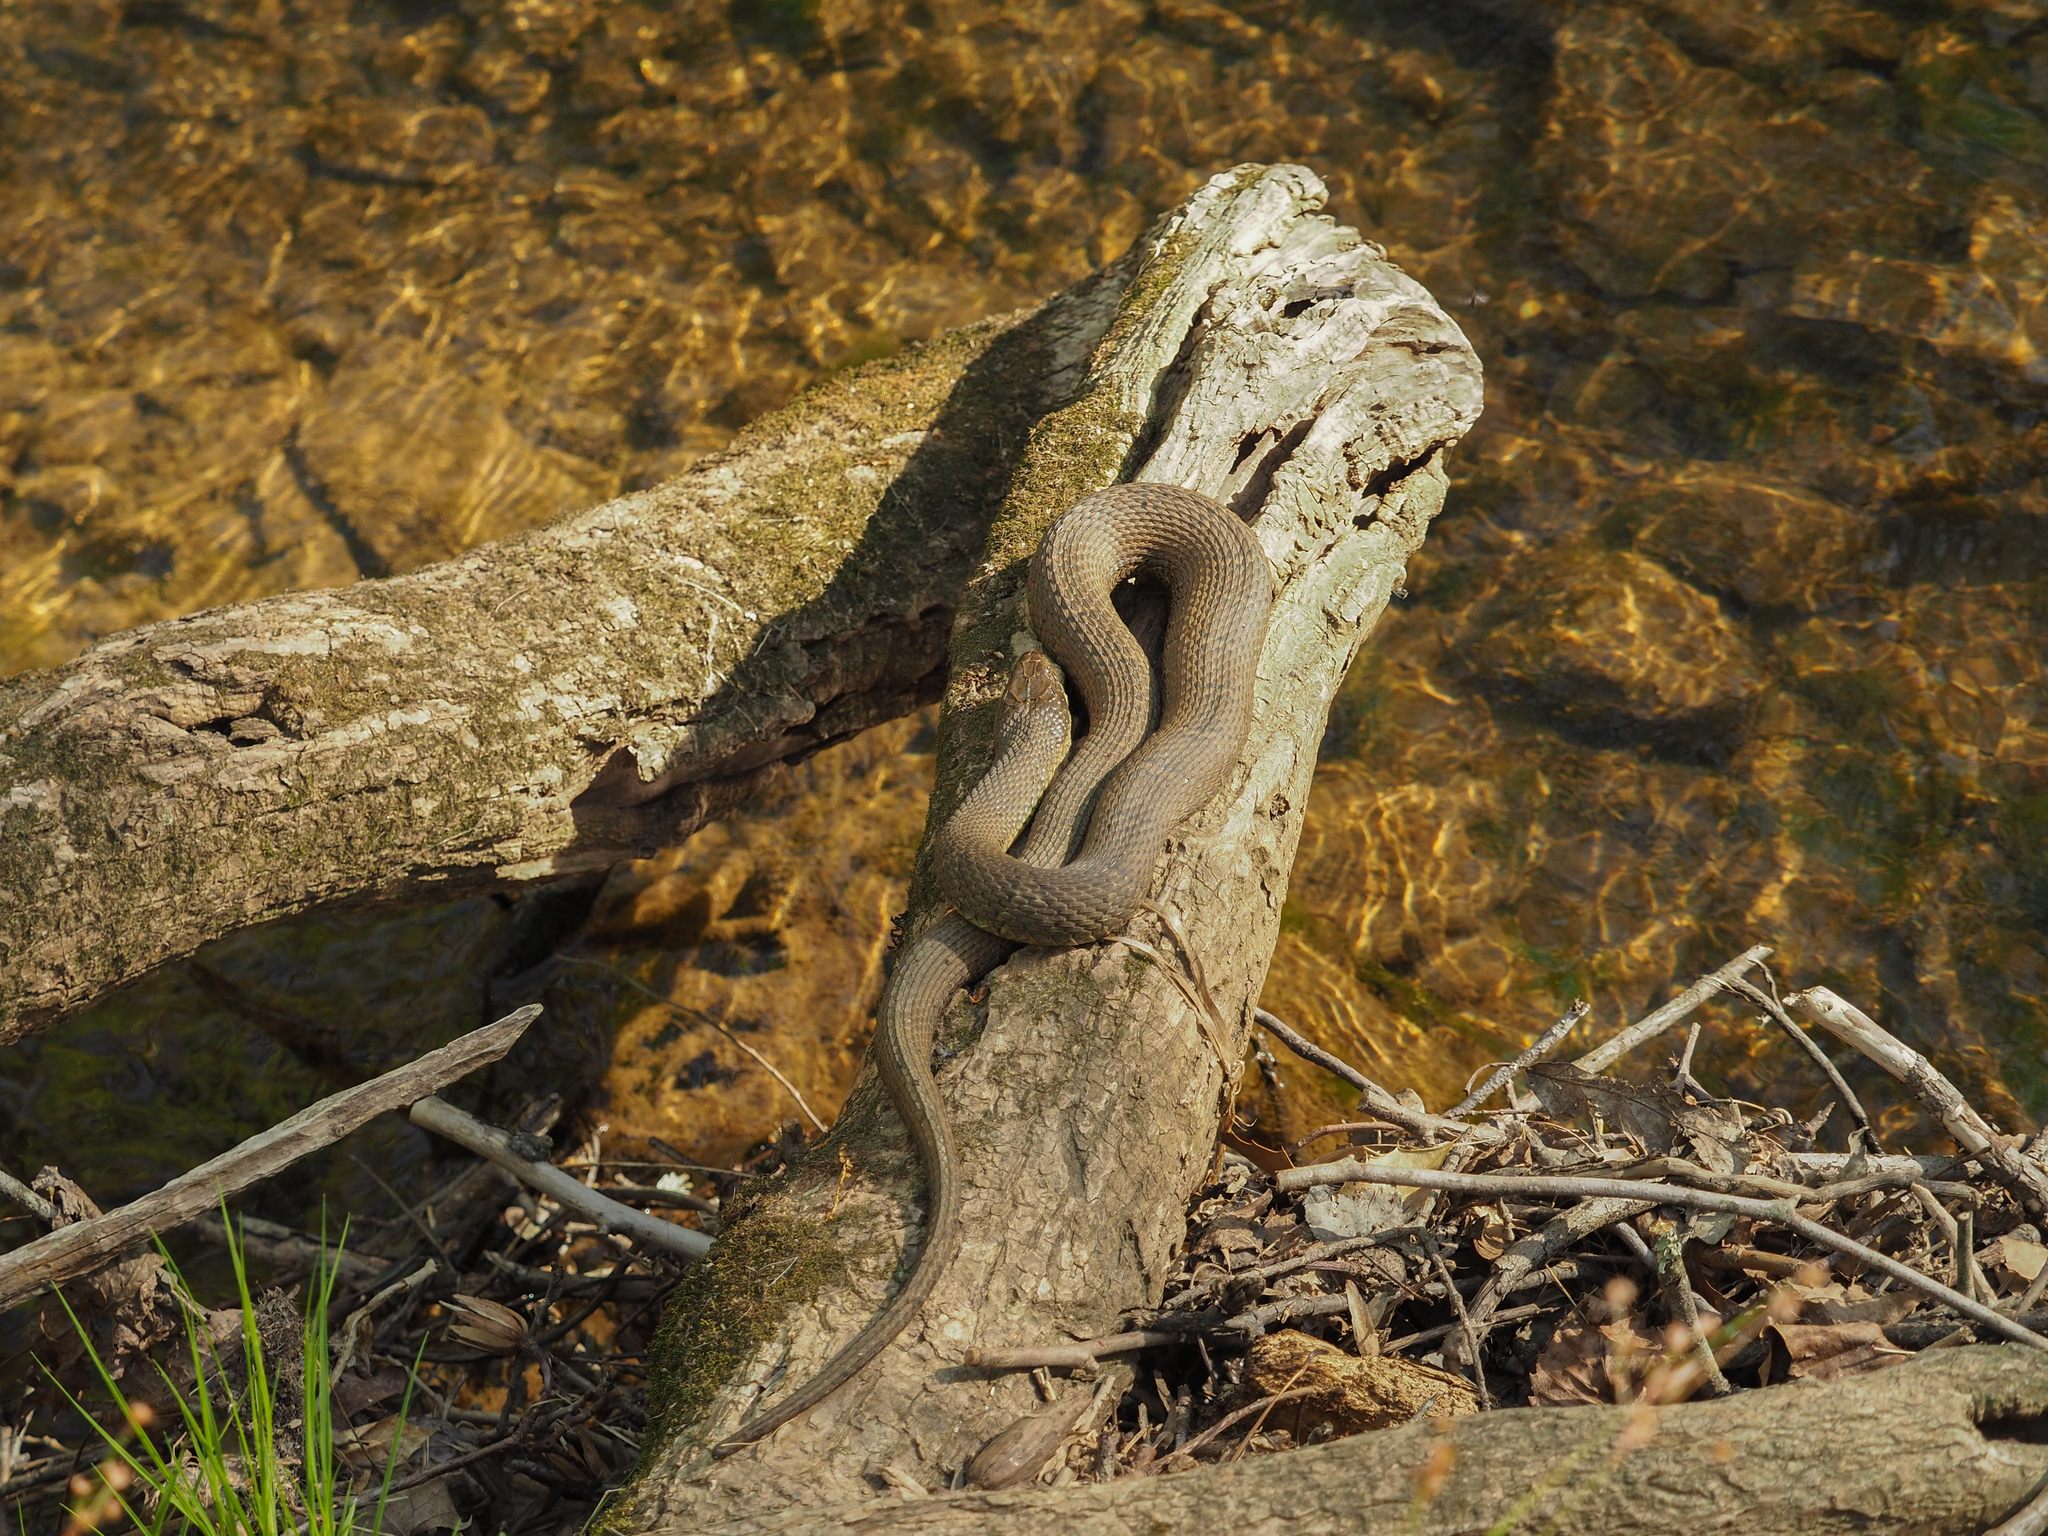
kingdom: Animalia
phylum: Chordata
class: Squamata
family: Colubridae
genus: Nerodia
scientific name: Nerodia sipedon
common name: Northern water snake
